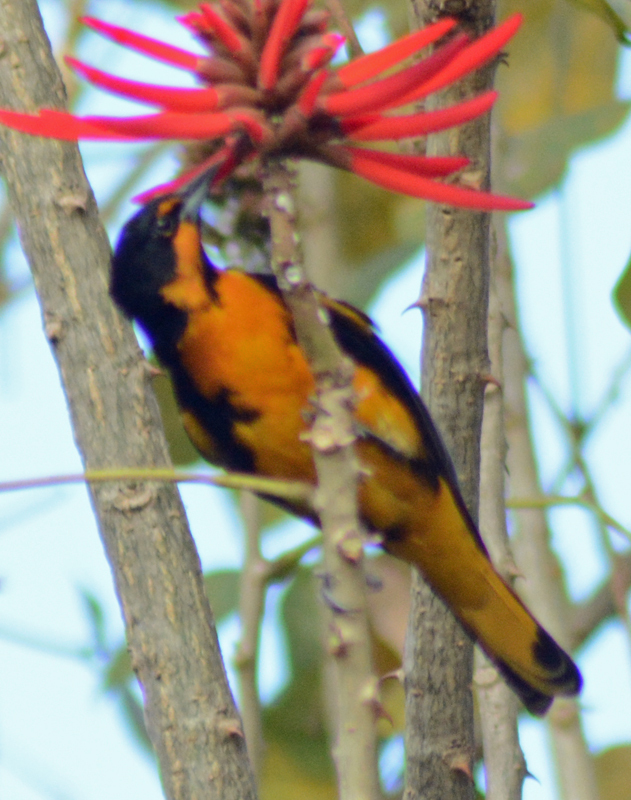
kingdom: Animalia
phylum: Chordata
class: Aves
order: Passeriformes
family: Icteridae
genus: Icterus
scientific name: Icterus abeillei
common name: Black-backed oriole
